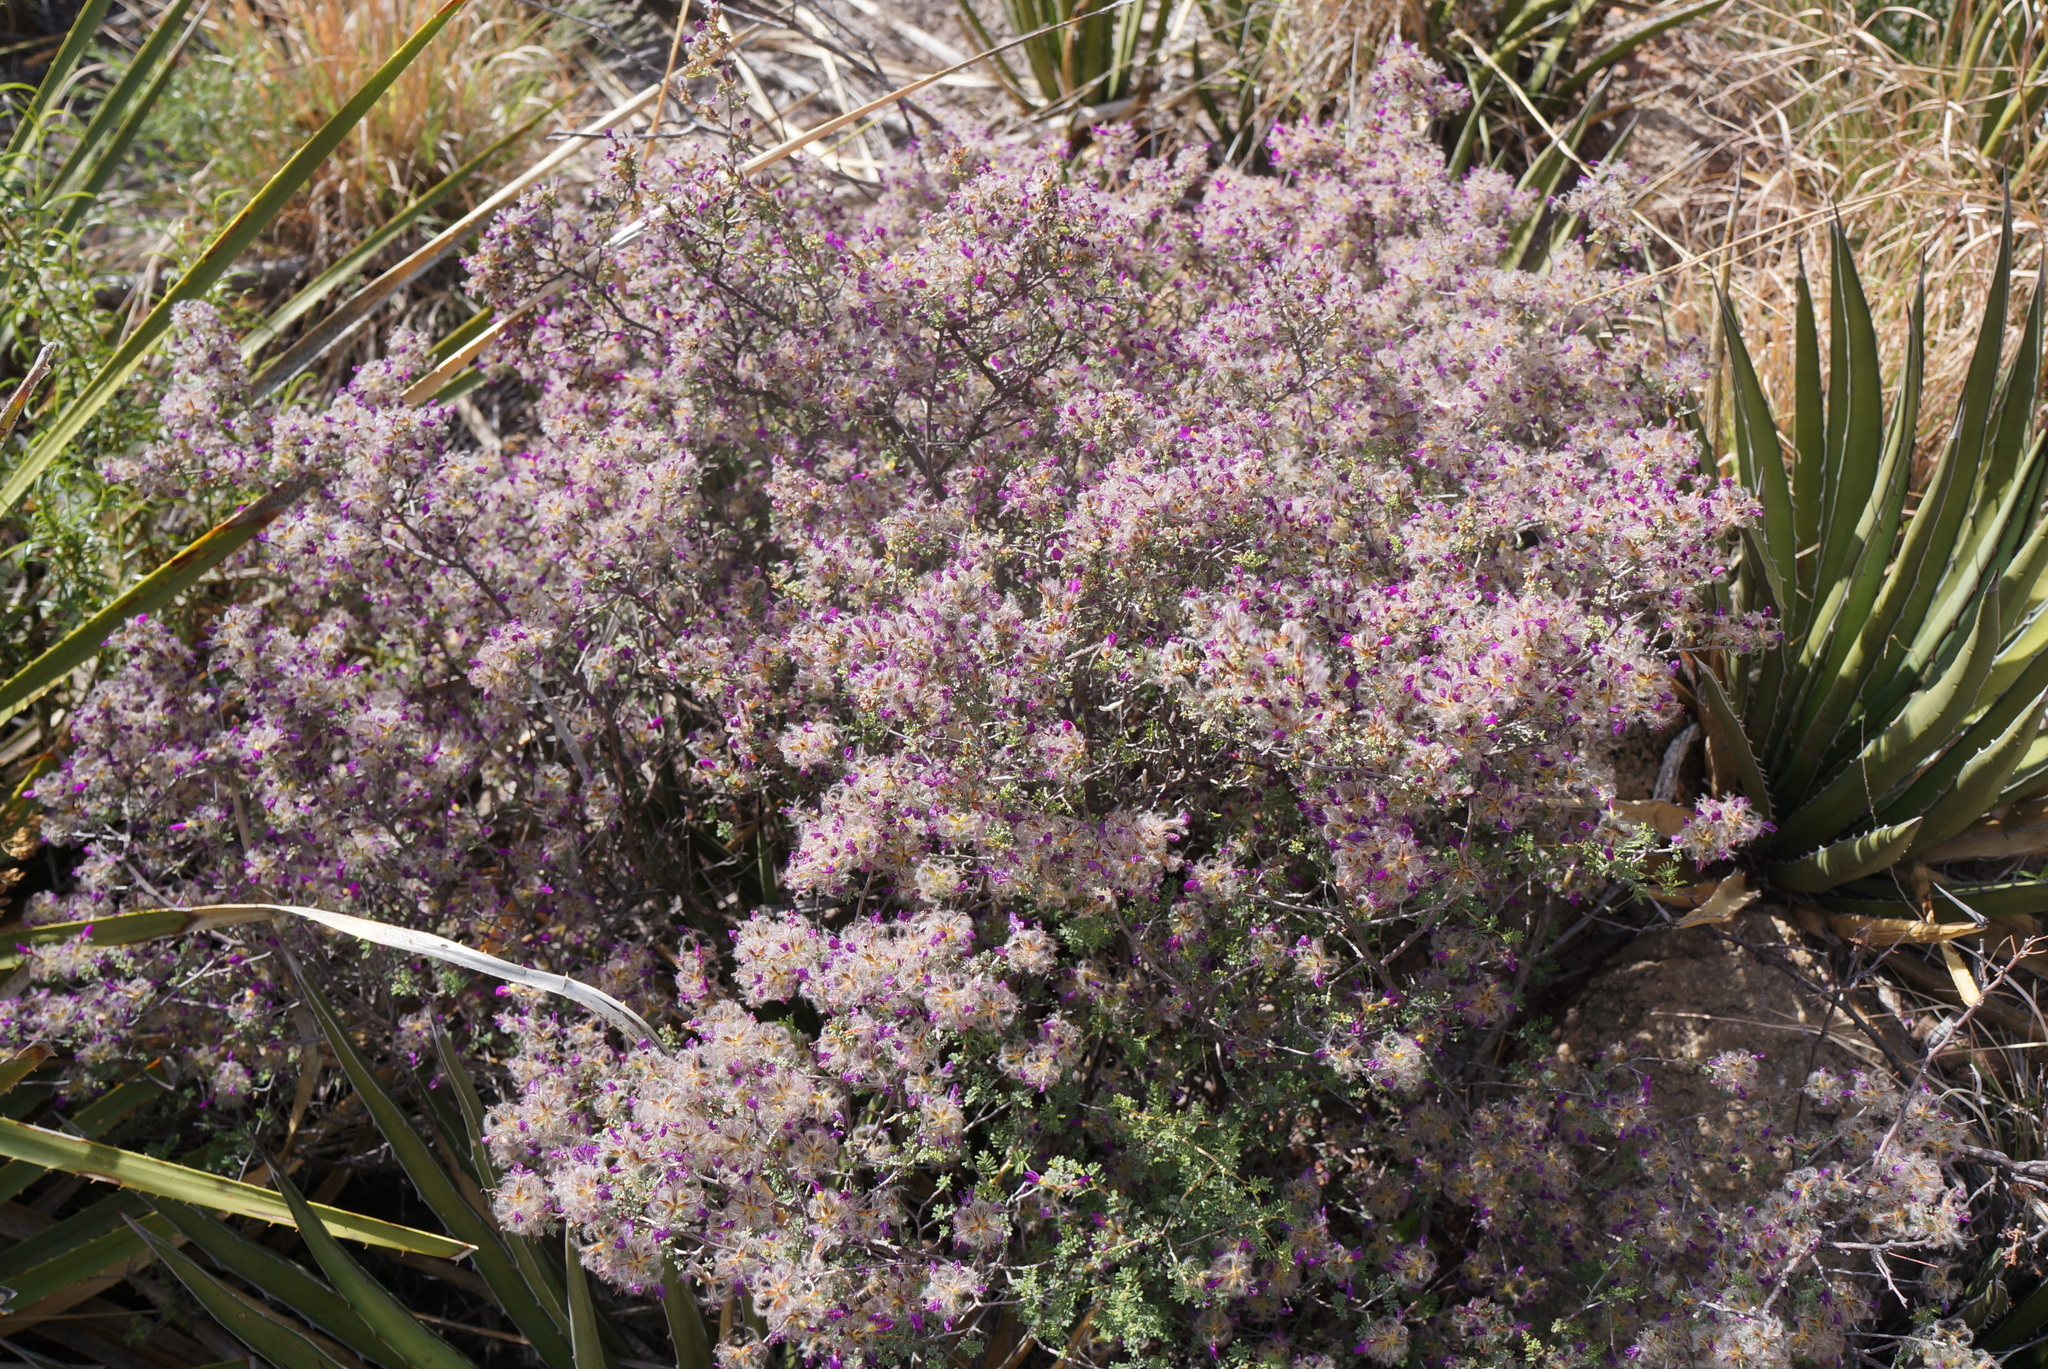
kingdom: Plantae
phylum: Tracheophyta
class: Magnoliopsida
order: Fabales
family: Fabaceae
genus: Dalea
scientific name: Dalea formosa
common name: Feather-plume dalea
